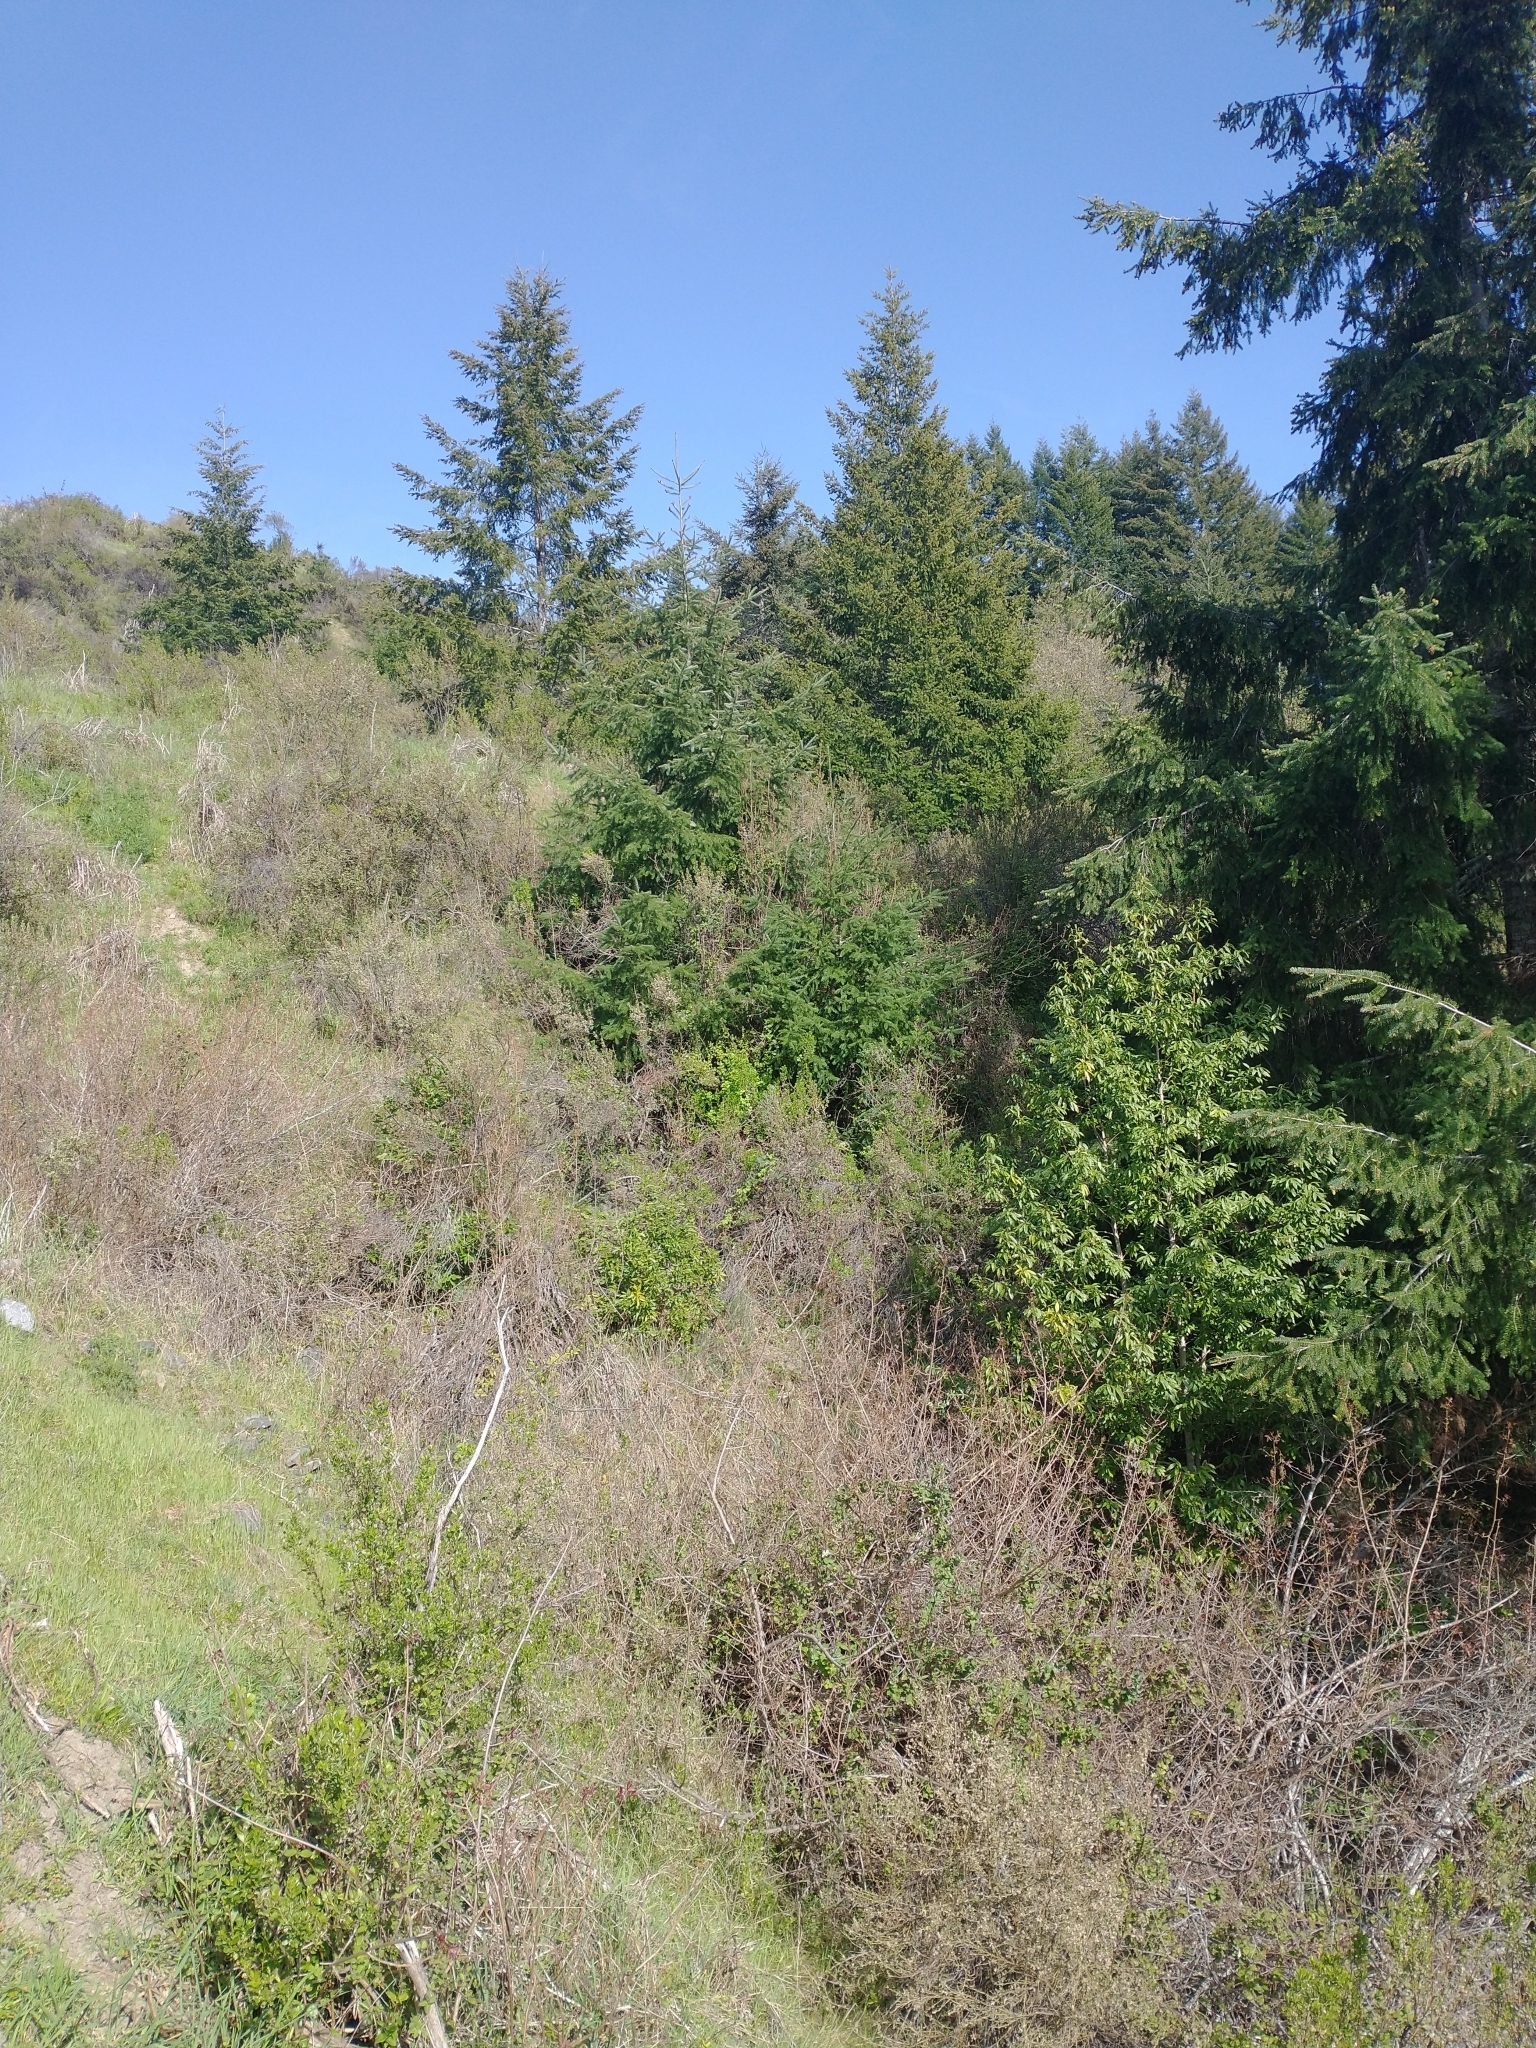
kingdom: Plantae
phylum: Tracheophyta
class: Pinopsida
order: Pinales
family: Pinaceae
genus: Pseudotsuga
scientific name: Pseudotsuga menziesii
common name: Douglas fir
